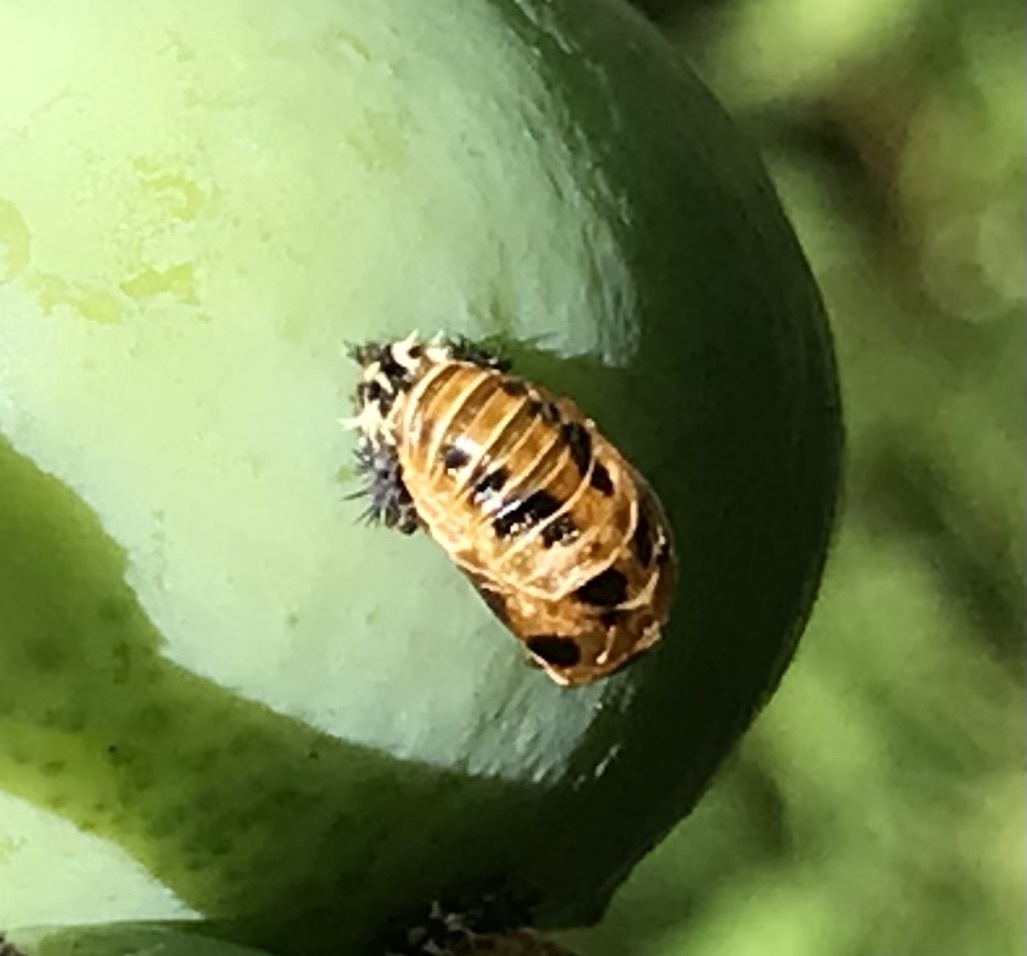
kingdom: Animalia
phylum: Arthropoda
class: Insecta
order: Coleoptera
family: Coccinellidae
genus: Harmonia
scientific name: Harmonia axyridis
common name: Harlequin ladybird
